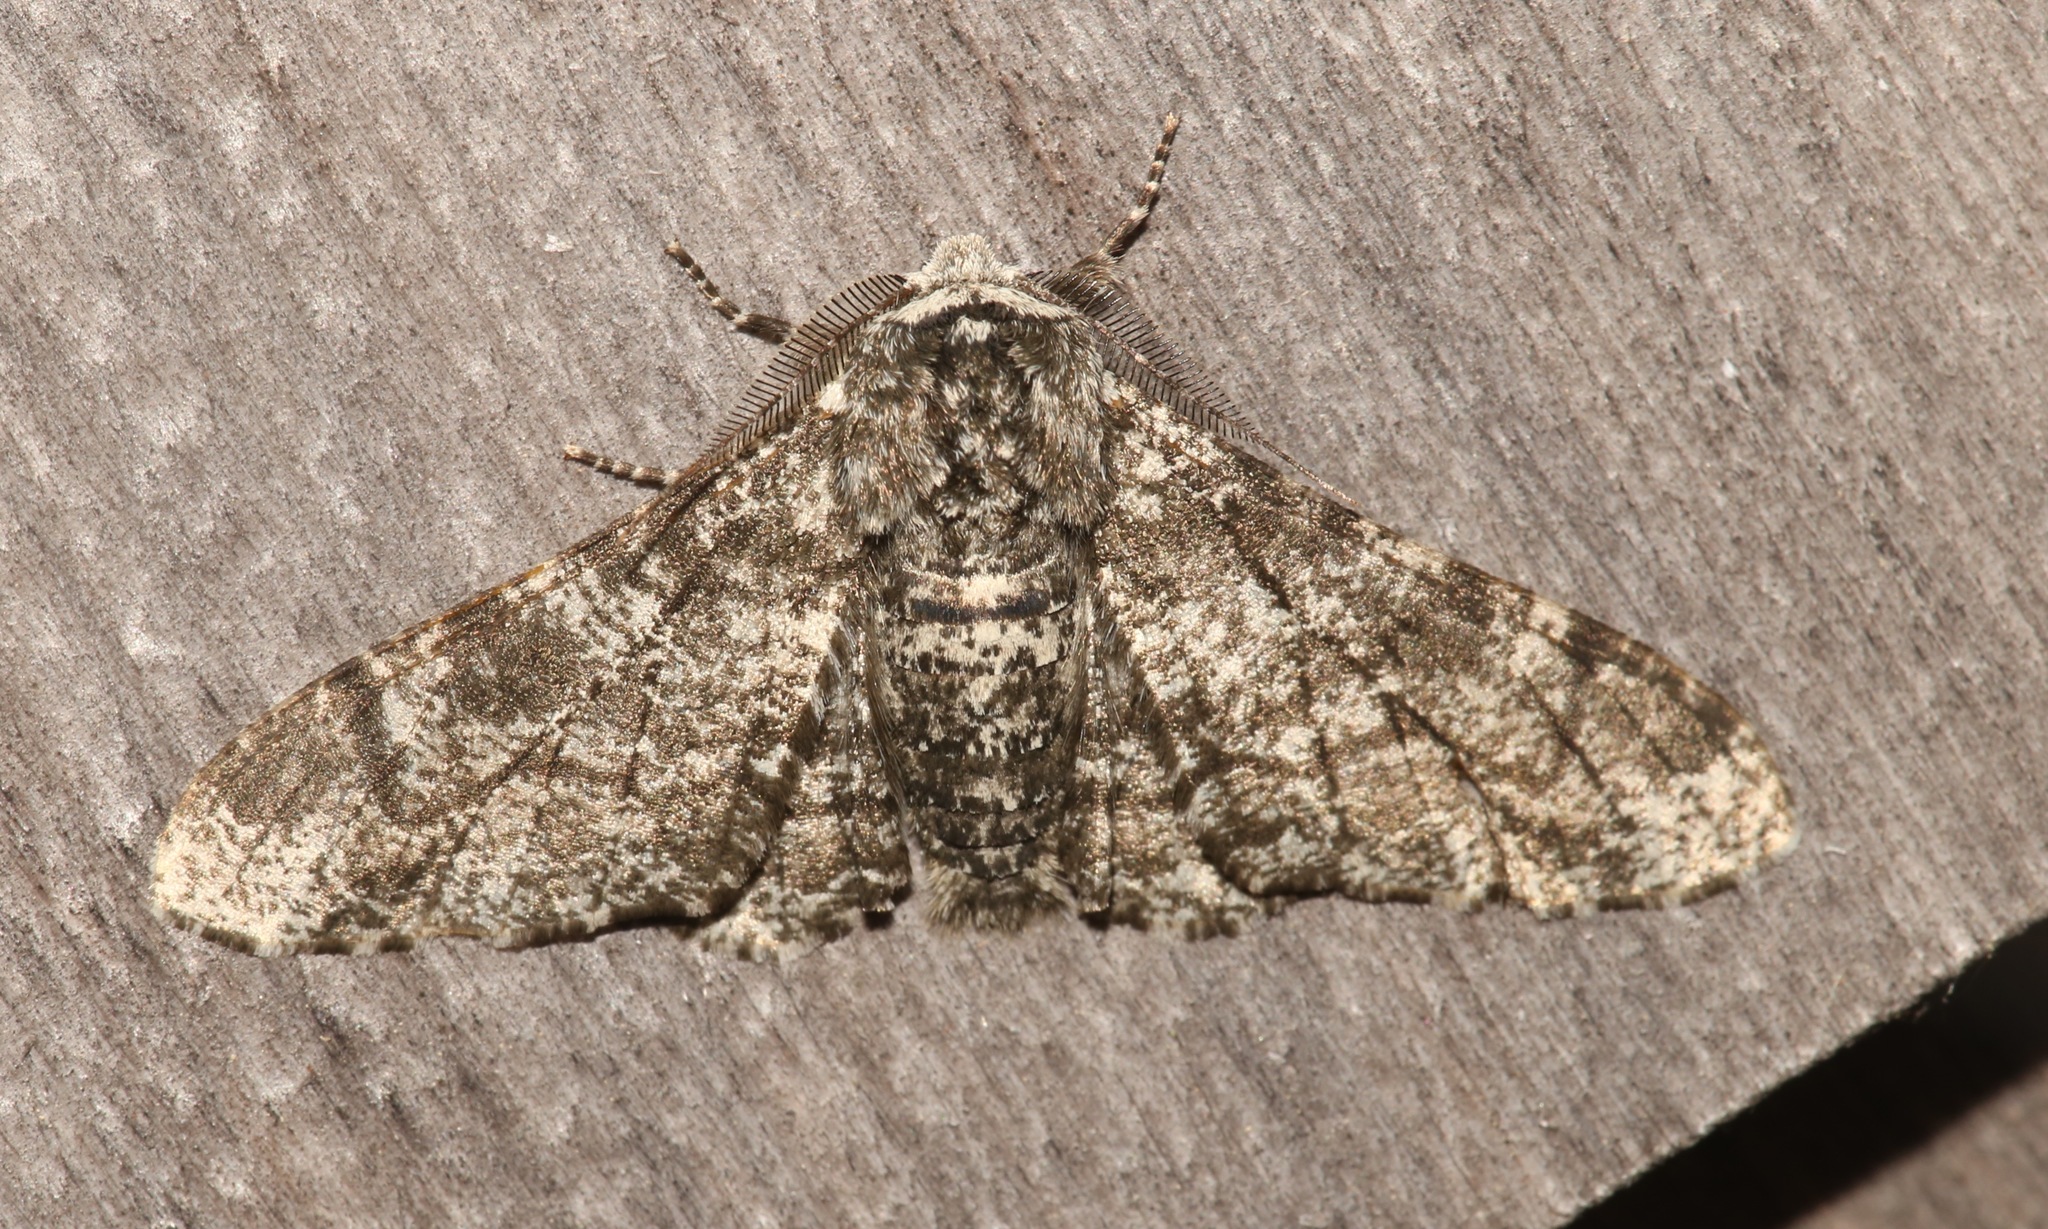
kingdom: Animalia
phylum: Arthropoda
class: Insecta
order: Lepidoptera
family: Geometridae
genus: Biston
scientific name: Biston betularia
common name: Peppered moth
